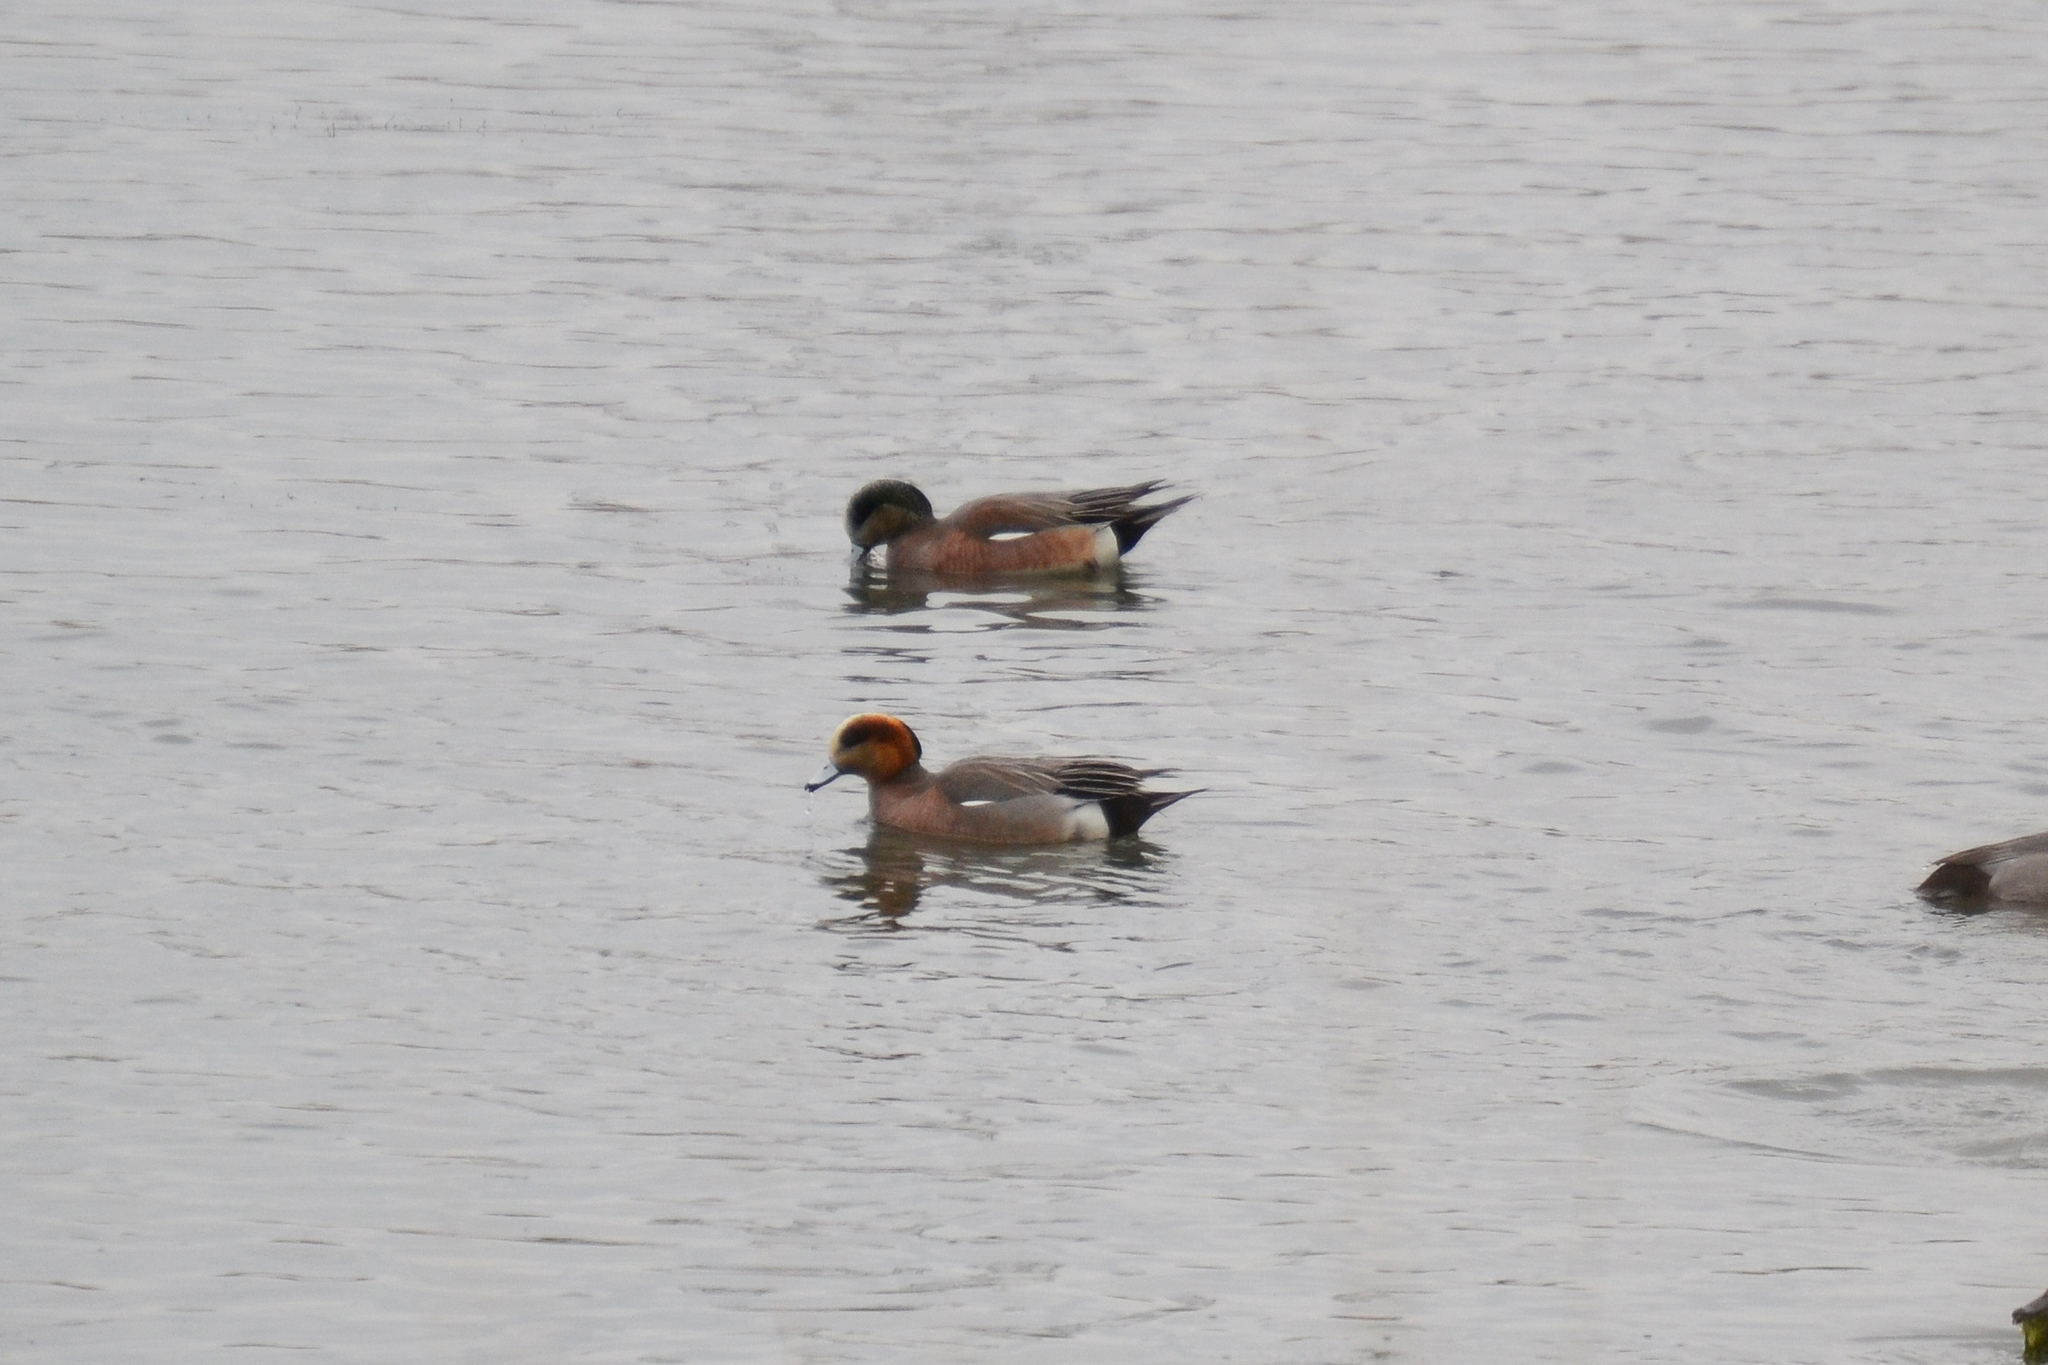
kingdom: Animalia
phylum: Chordata
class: Aves
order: Anseriformes
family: Anatidae
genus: Mareca
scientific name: Mareca
